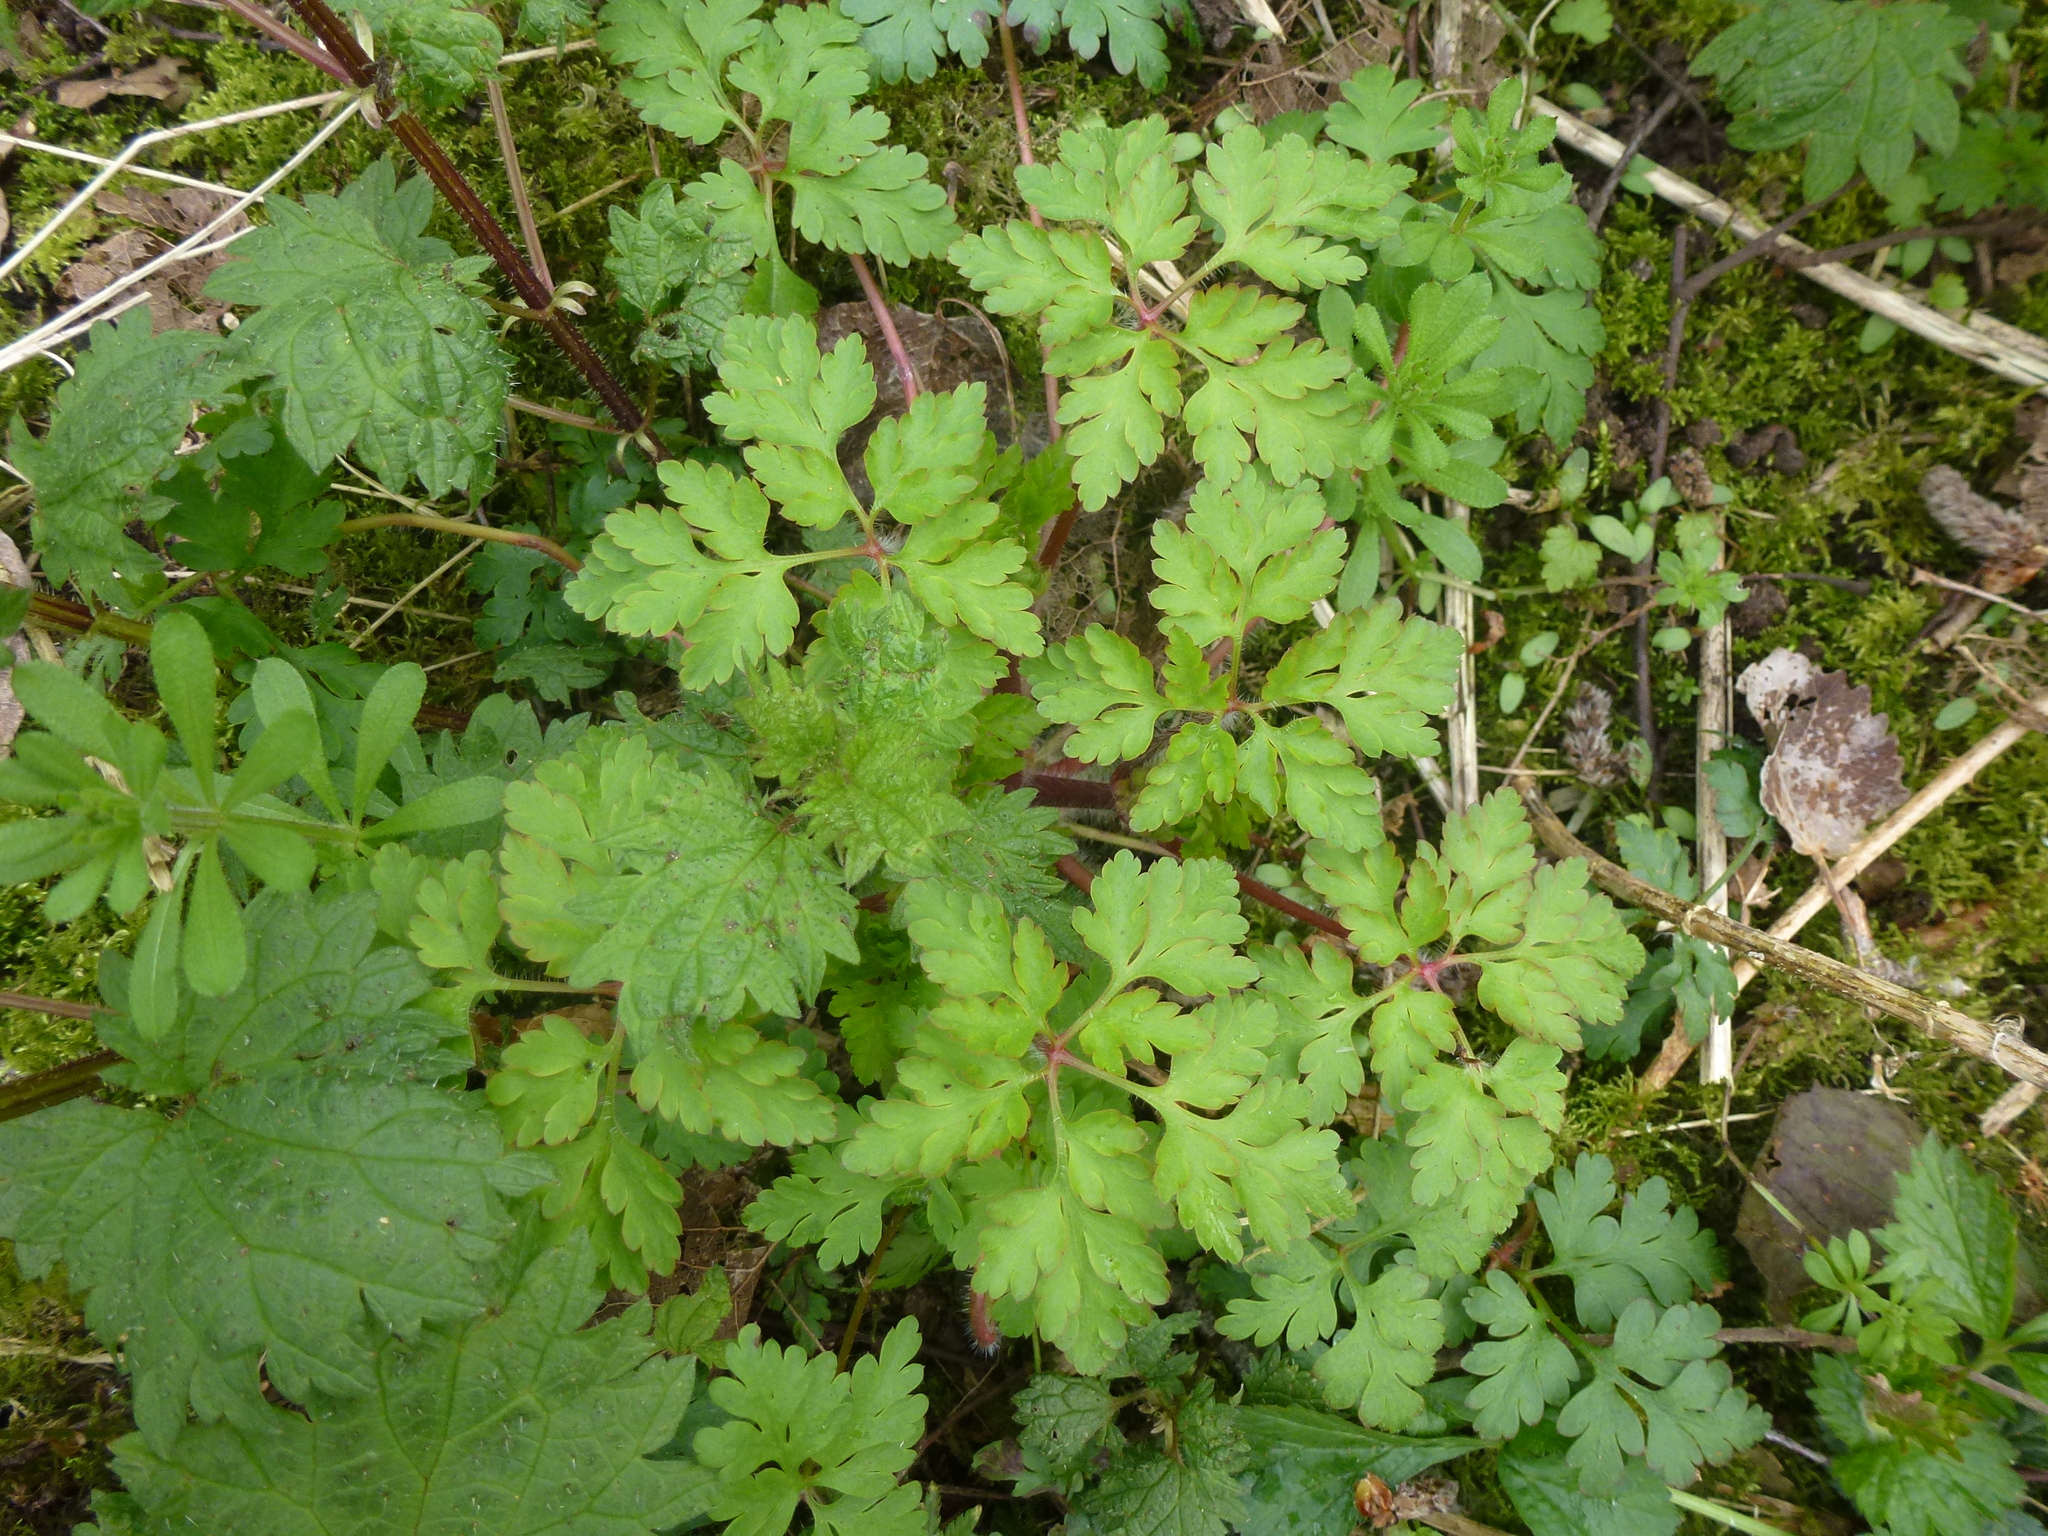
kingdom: Plantae
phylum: Tracheophyta
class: Magnoliopsida
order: Geraniales
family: Geraniaceae
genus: Geranium
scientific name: Geranium robertianum
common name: Herb-robert
